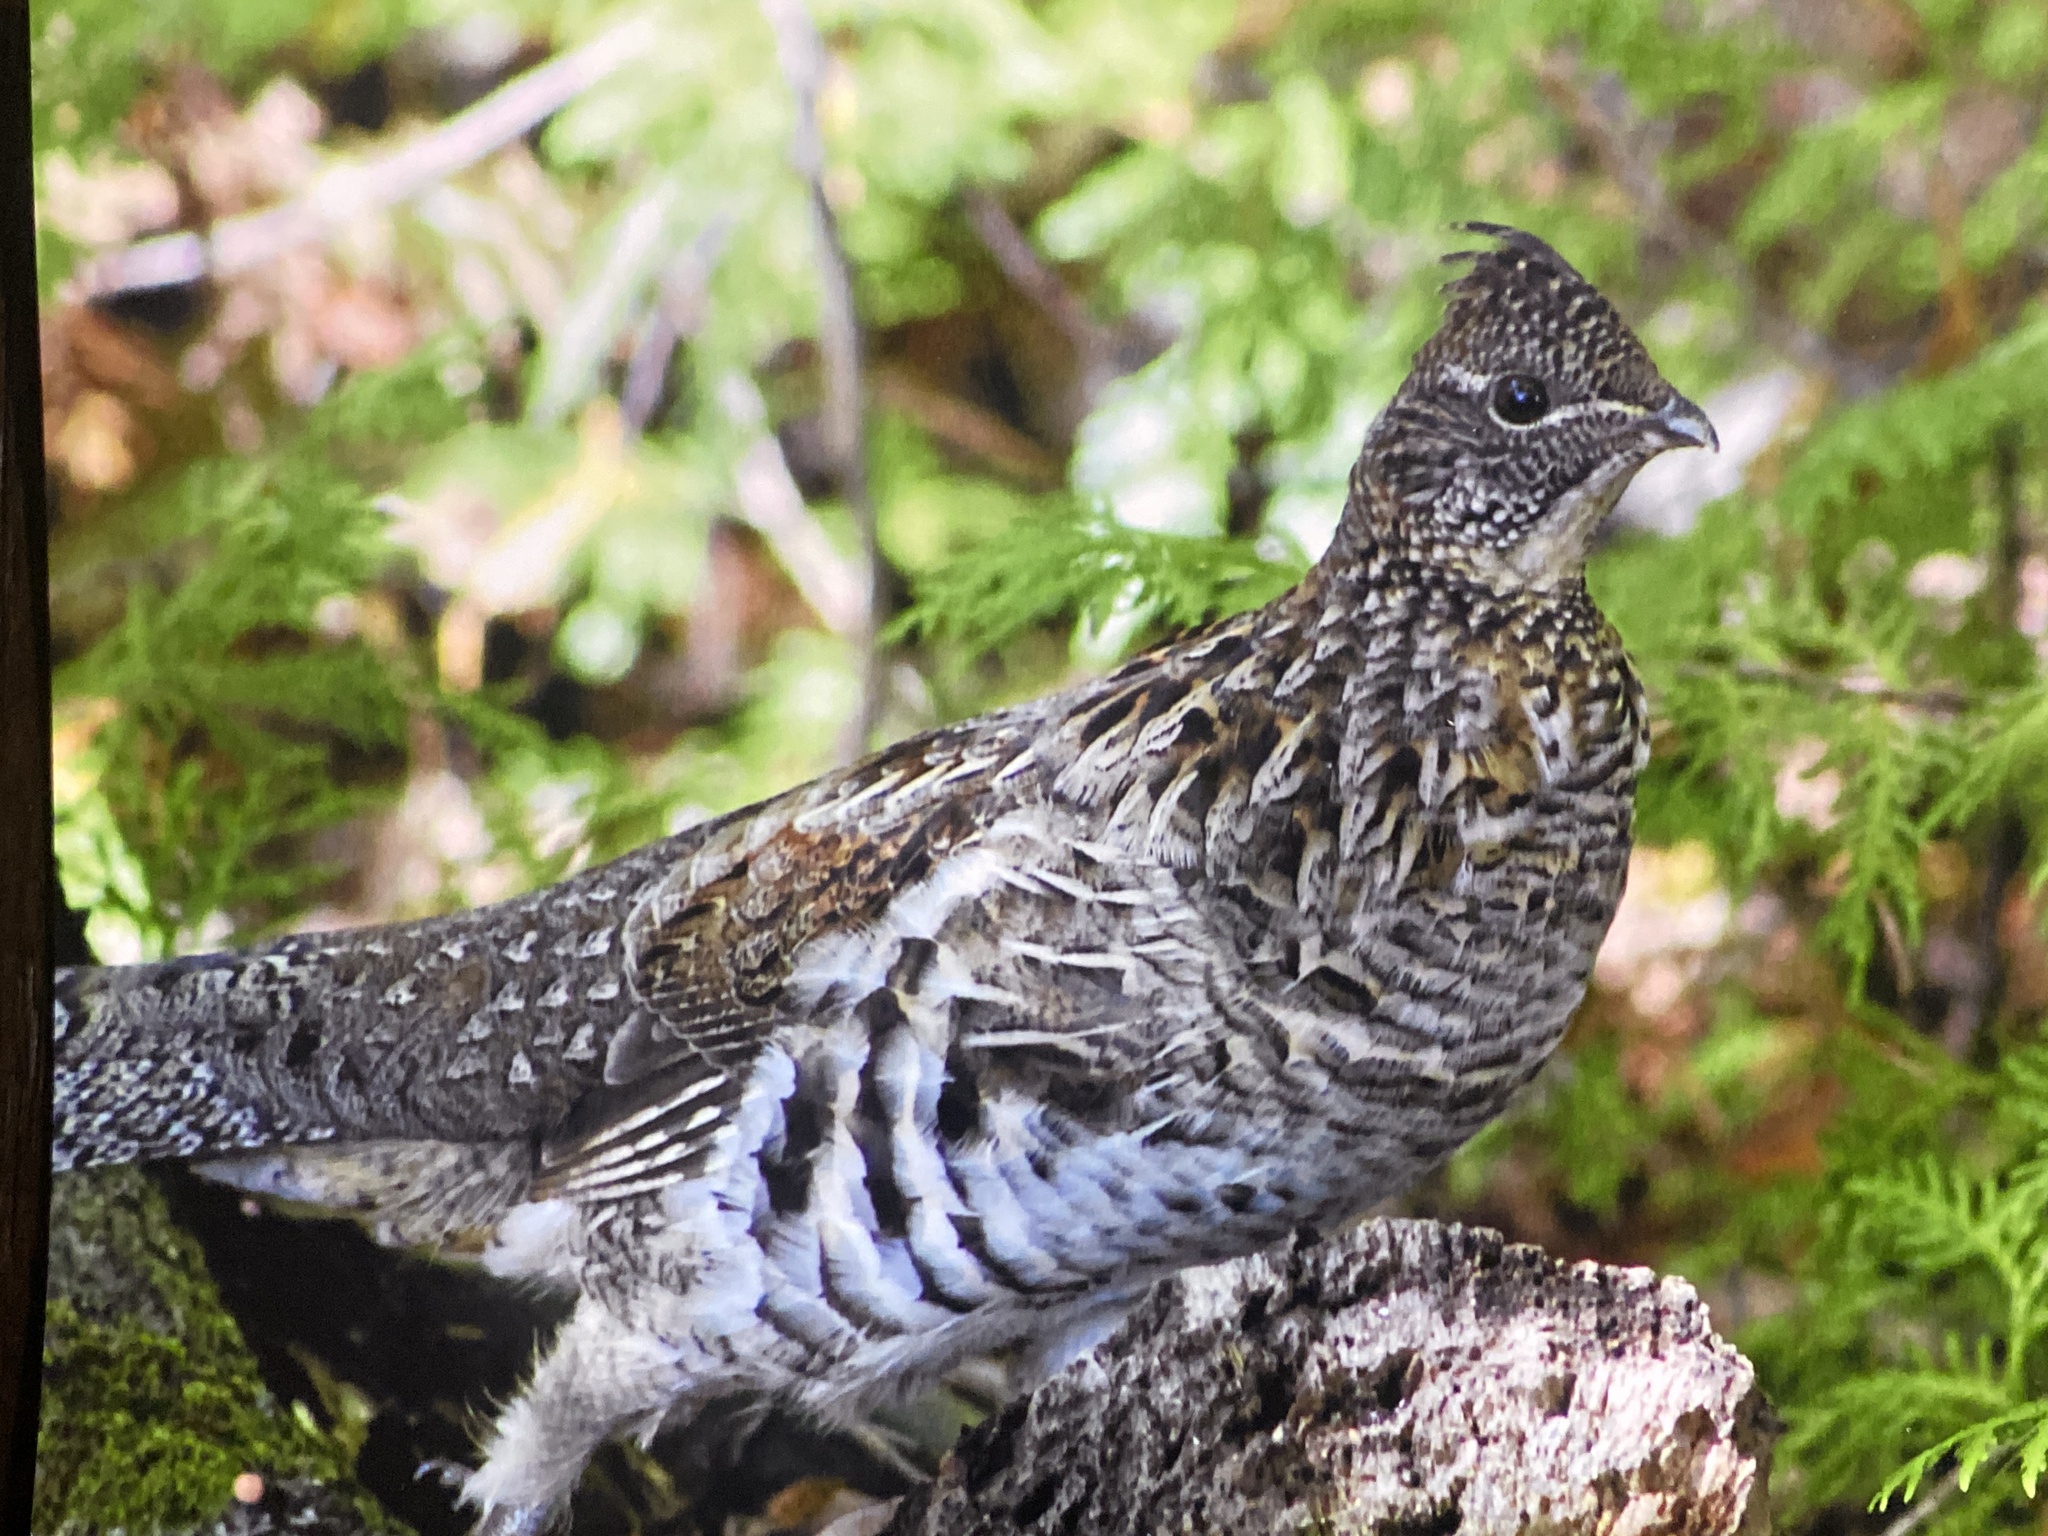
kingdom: Animalia
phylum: Chordata
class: Aves
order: Galliformes
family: Phasianidae
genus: Bonasa
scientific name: Bonasa umbellus
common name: Ruffed grouse
